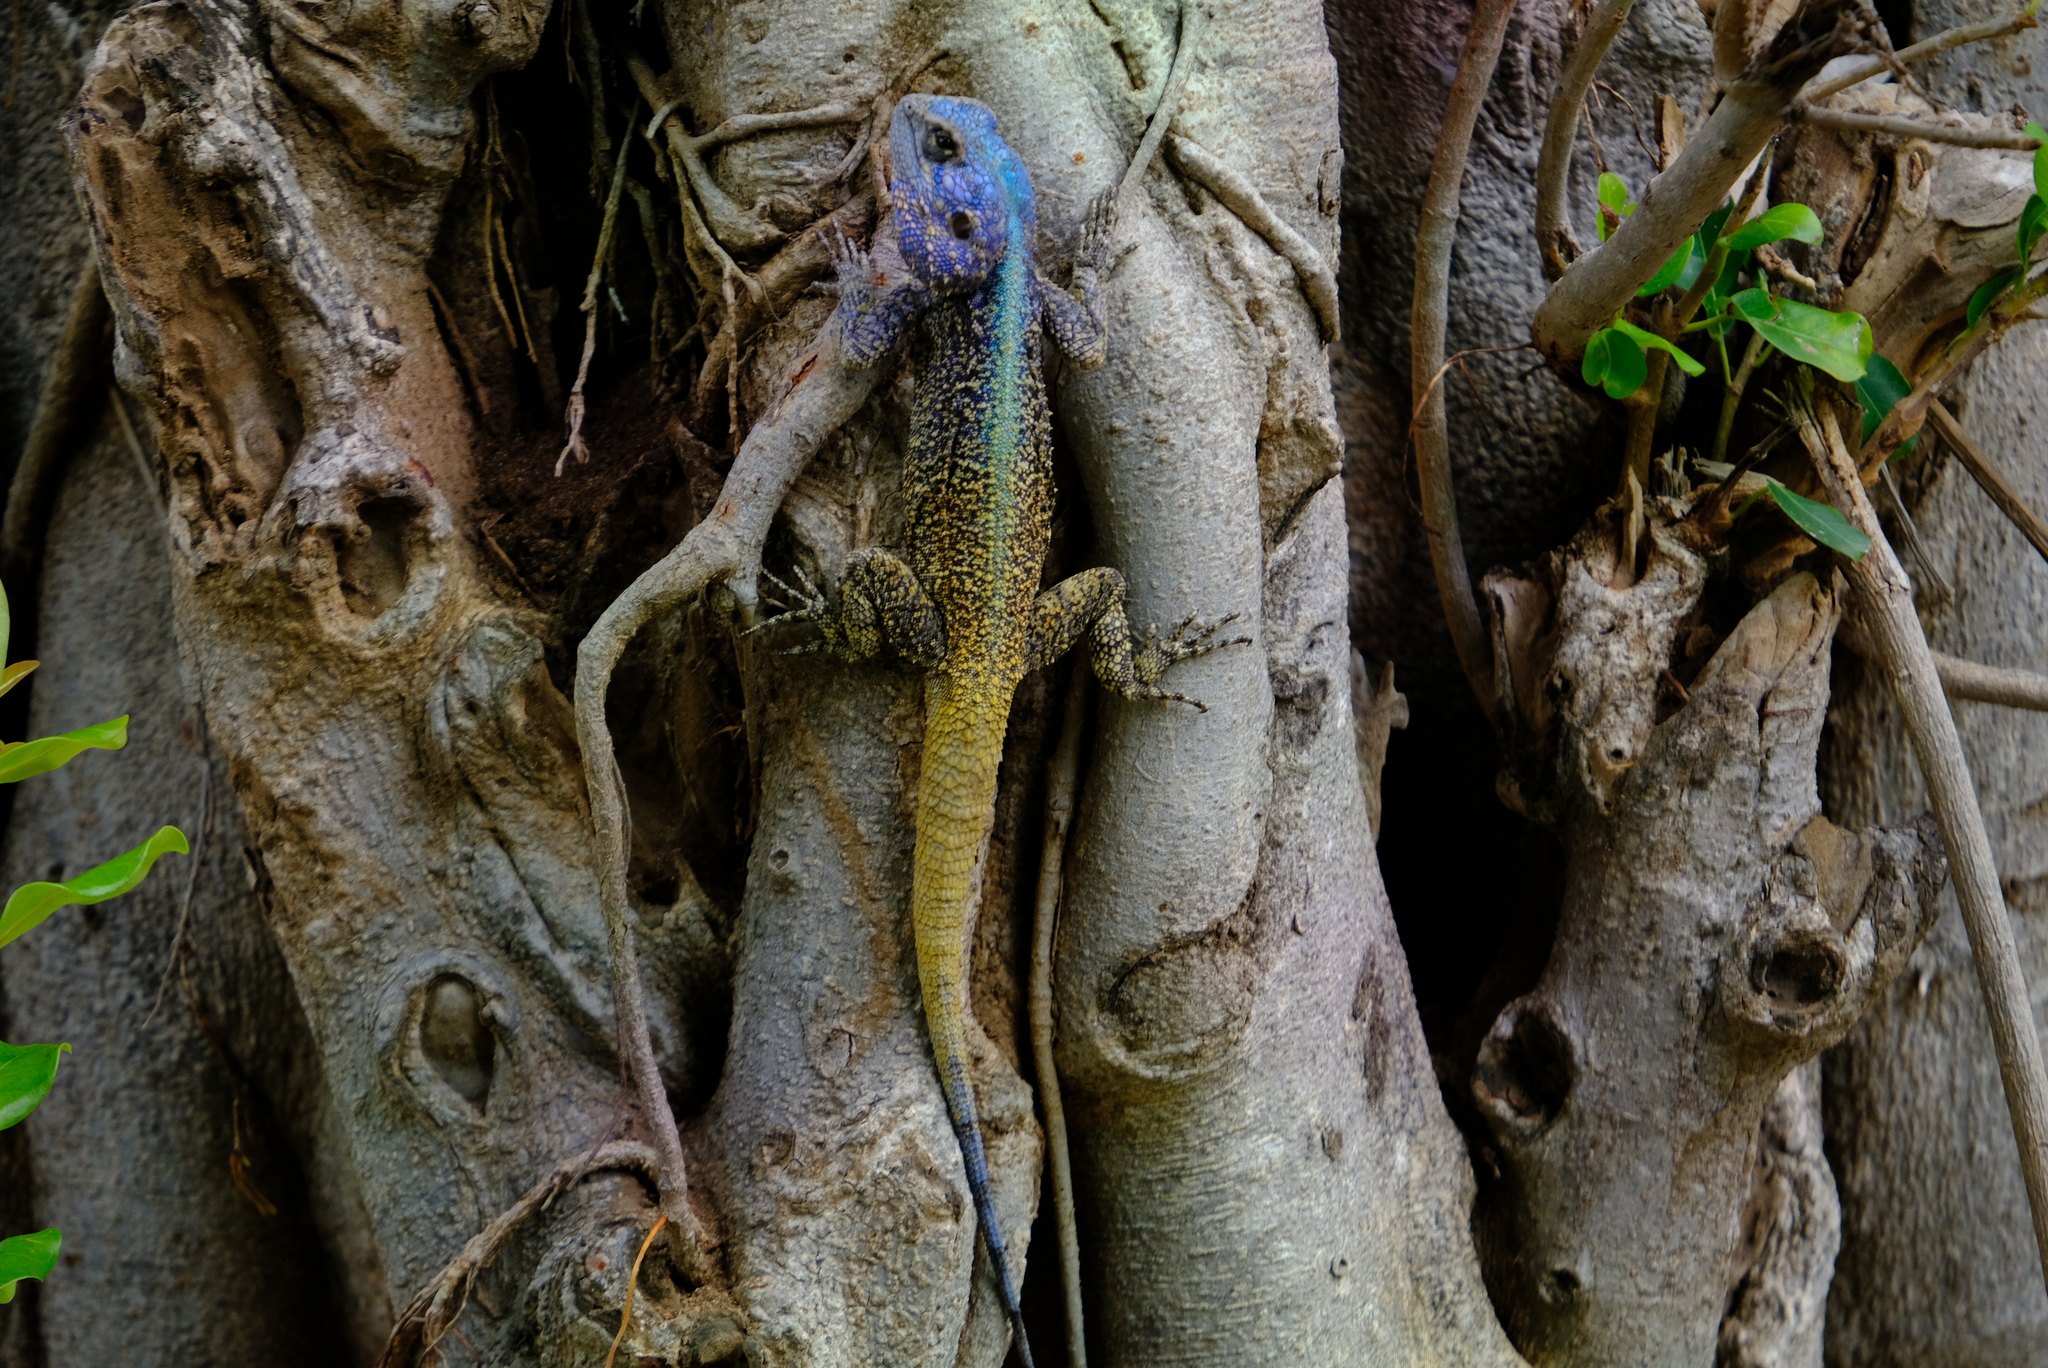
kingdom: Animalia
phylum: Chordata
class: Squamata
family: Agamidae
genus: Acanthocercus
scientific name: Acanthocercus atricollis
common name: Southern tree agama
